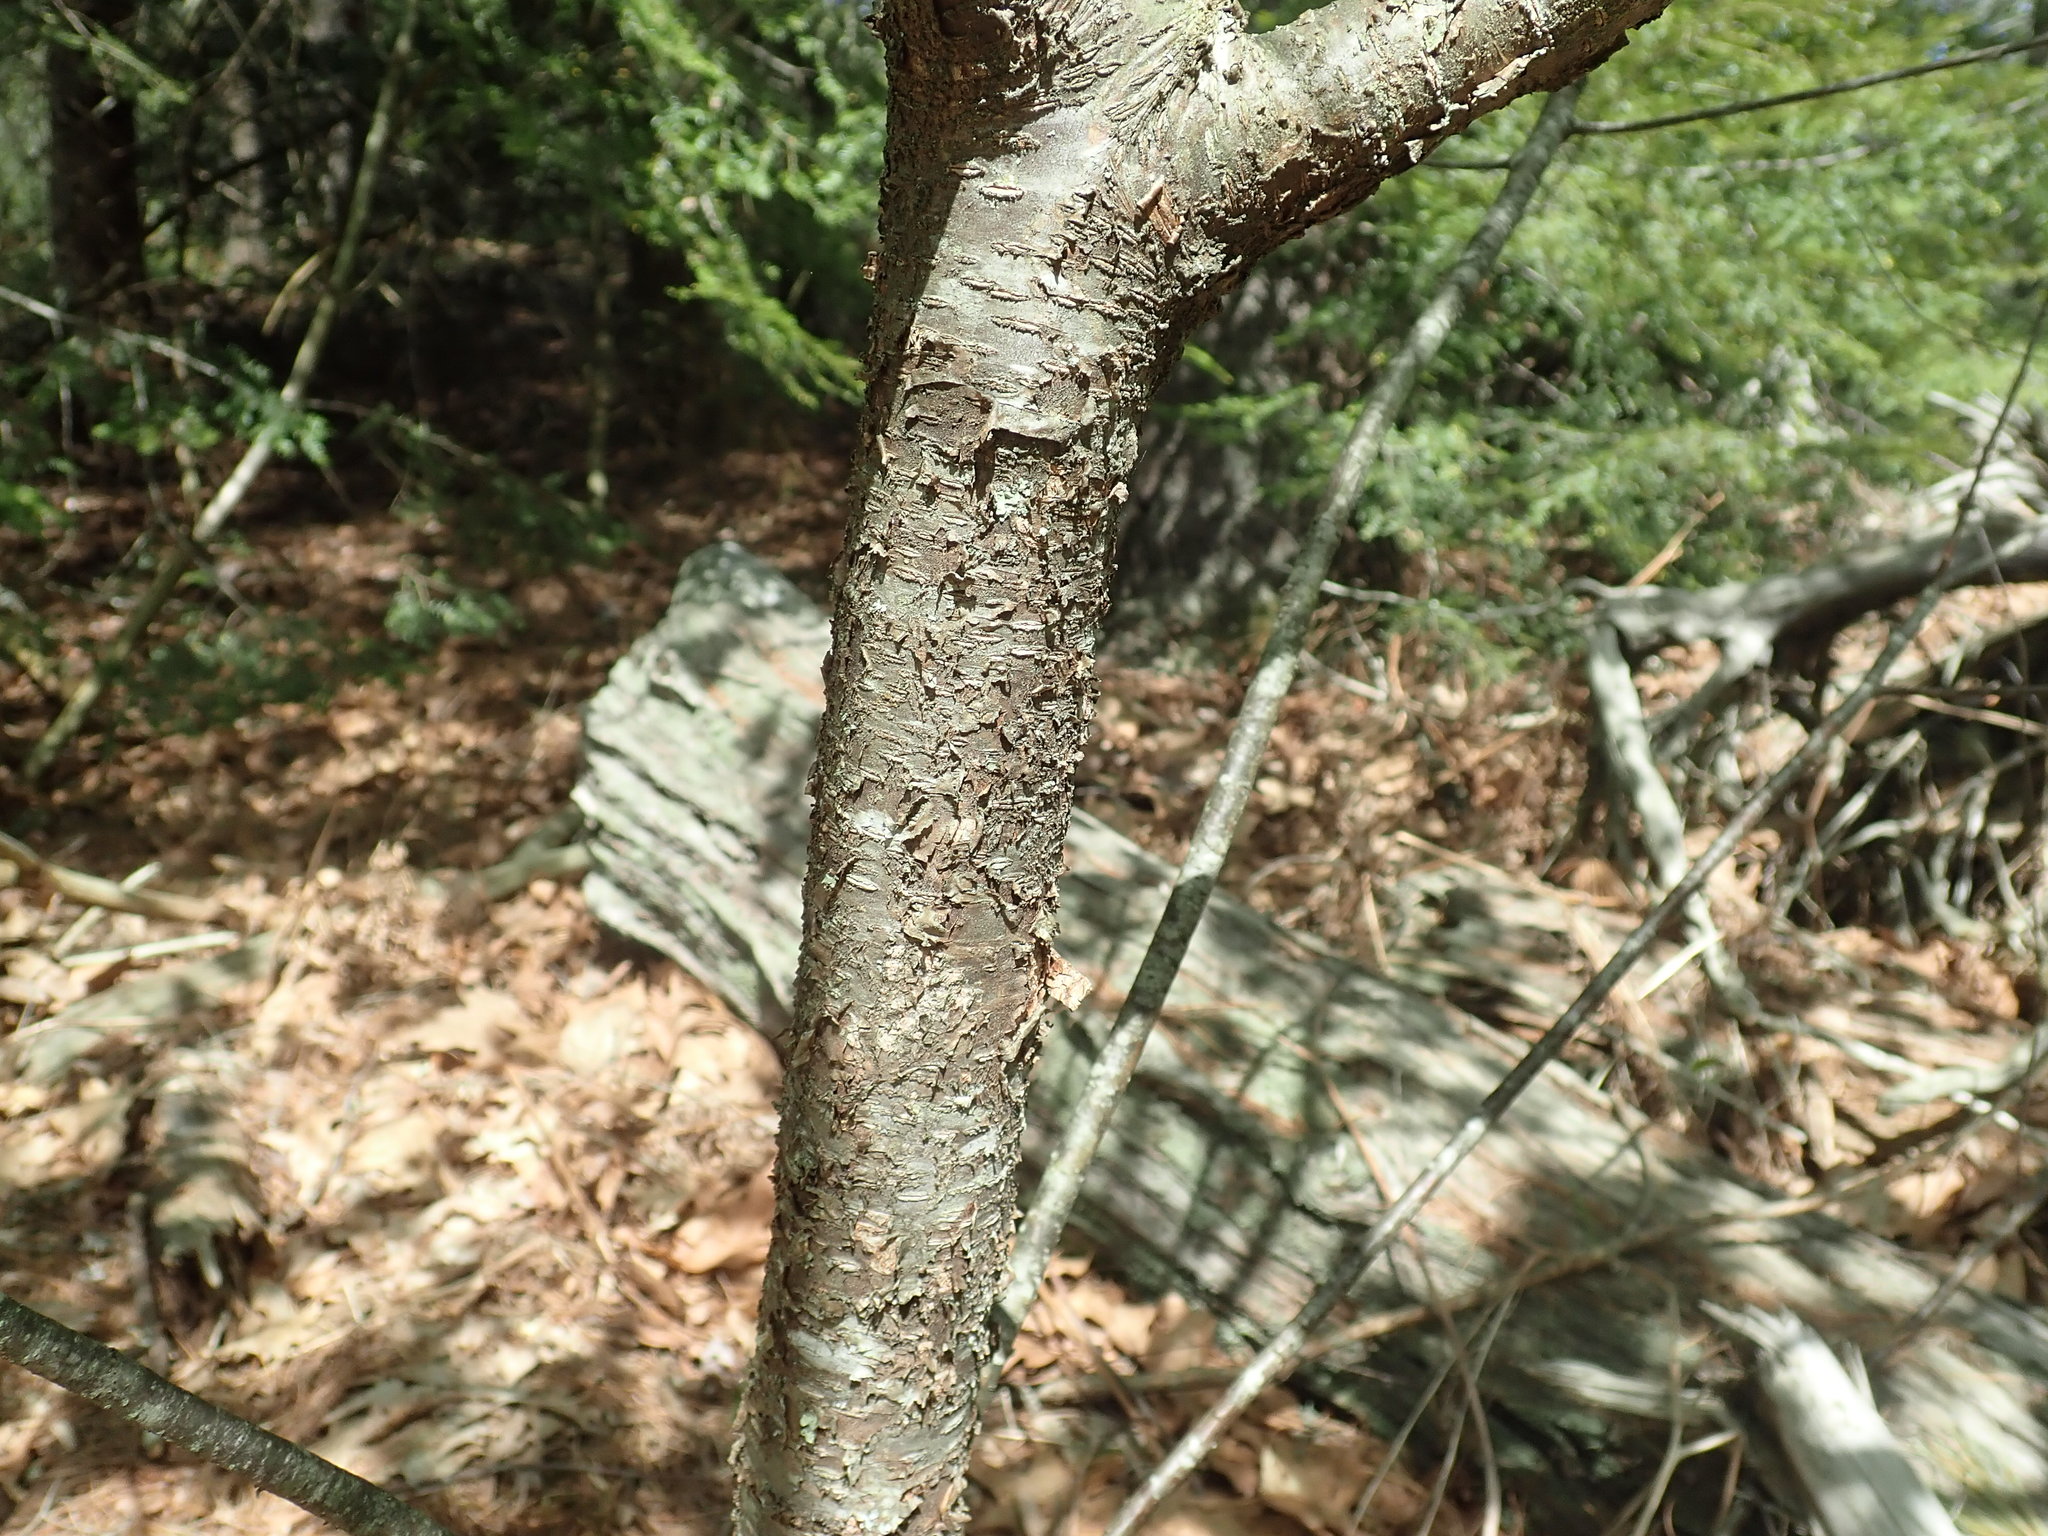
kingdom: Plantae
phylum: Tracheophyta
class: Magnoliopsida
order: Rosales
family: Rosaceae
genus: Prunus
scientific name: Prunus serotina
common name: Black cherry
